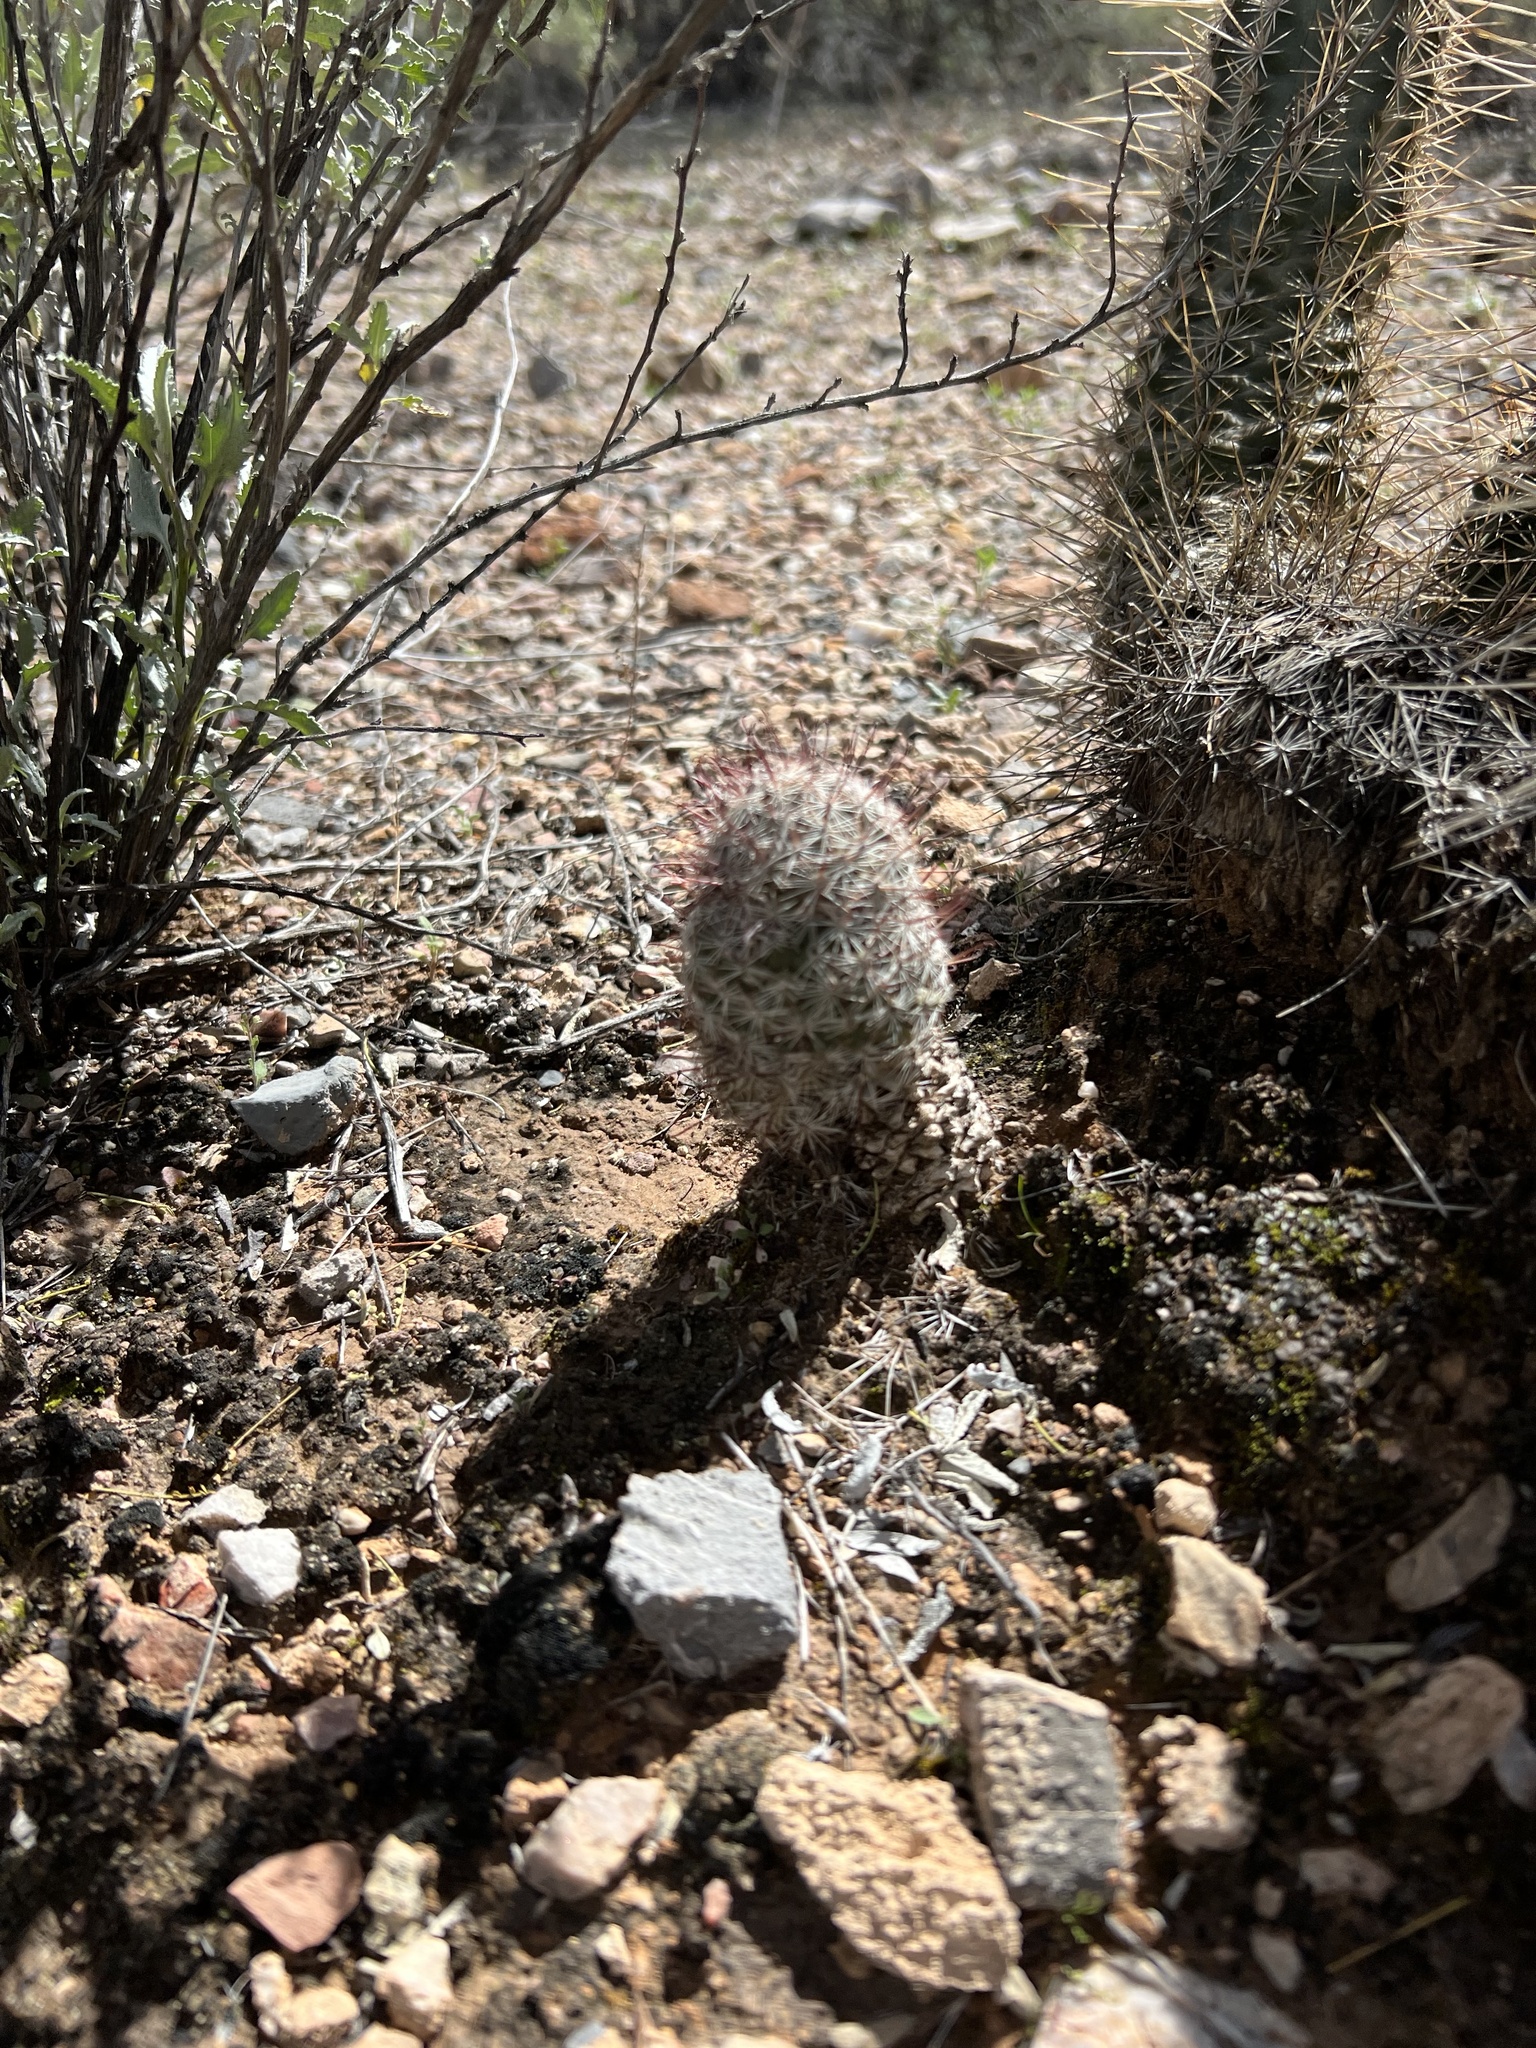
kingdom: Plantae
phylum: Tracheophyta
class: Magnoliopsida
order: Caryophyllales
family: Cactaceae
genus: Cochemiea
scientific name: Cochemiea grahamii
